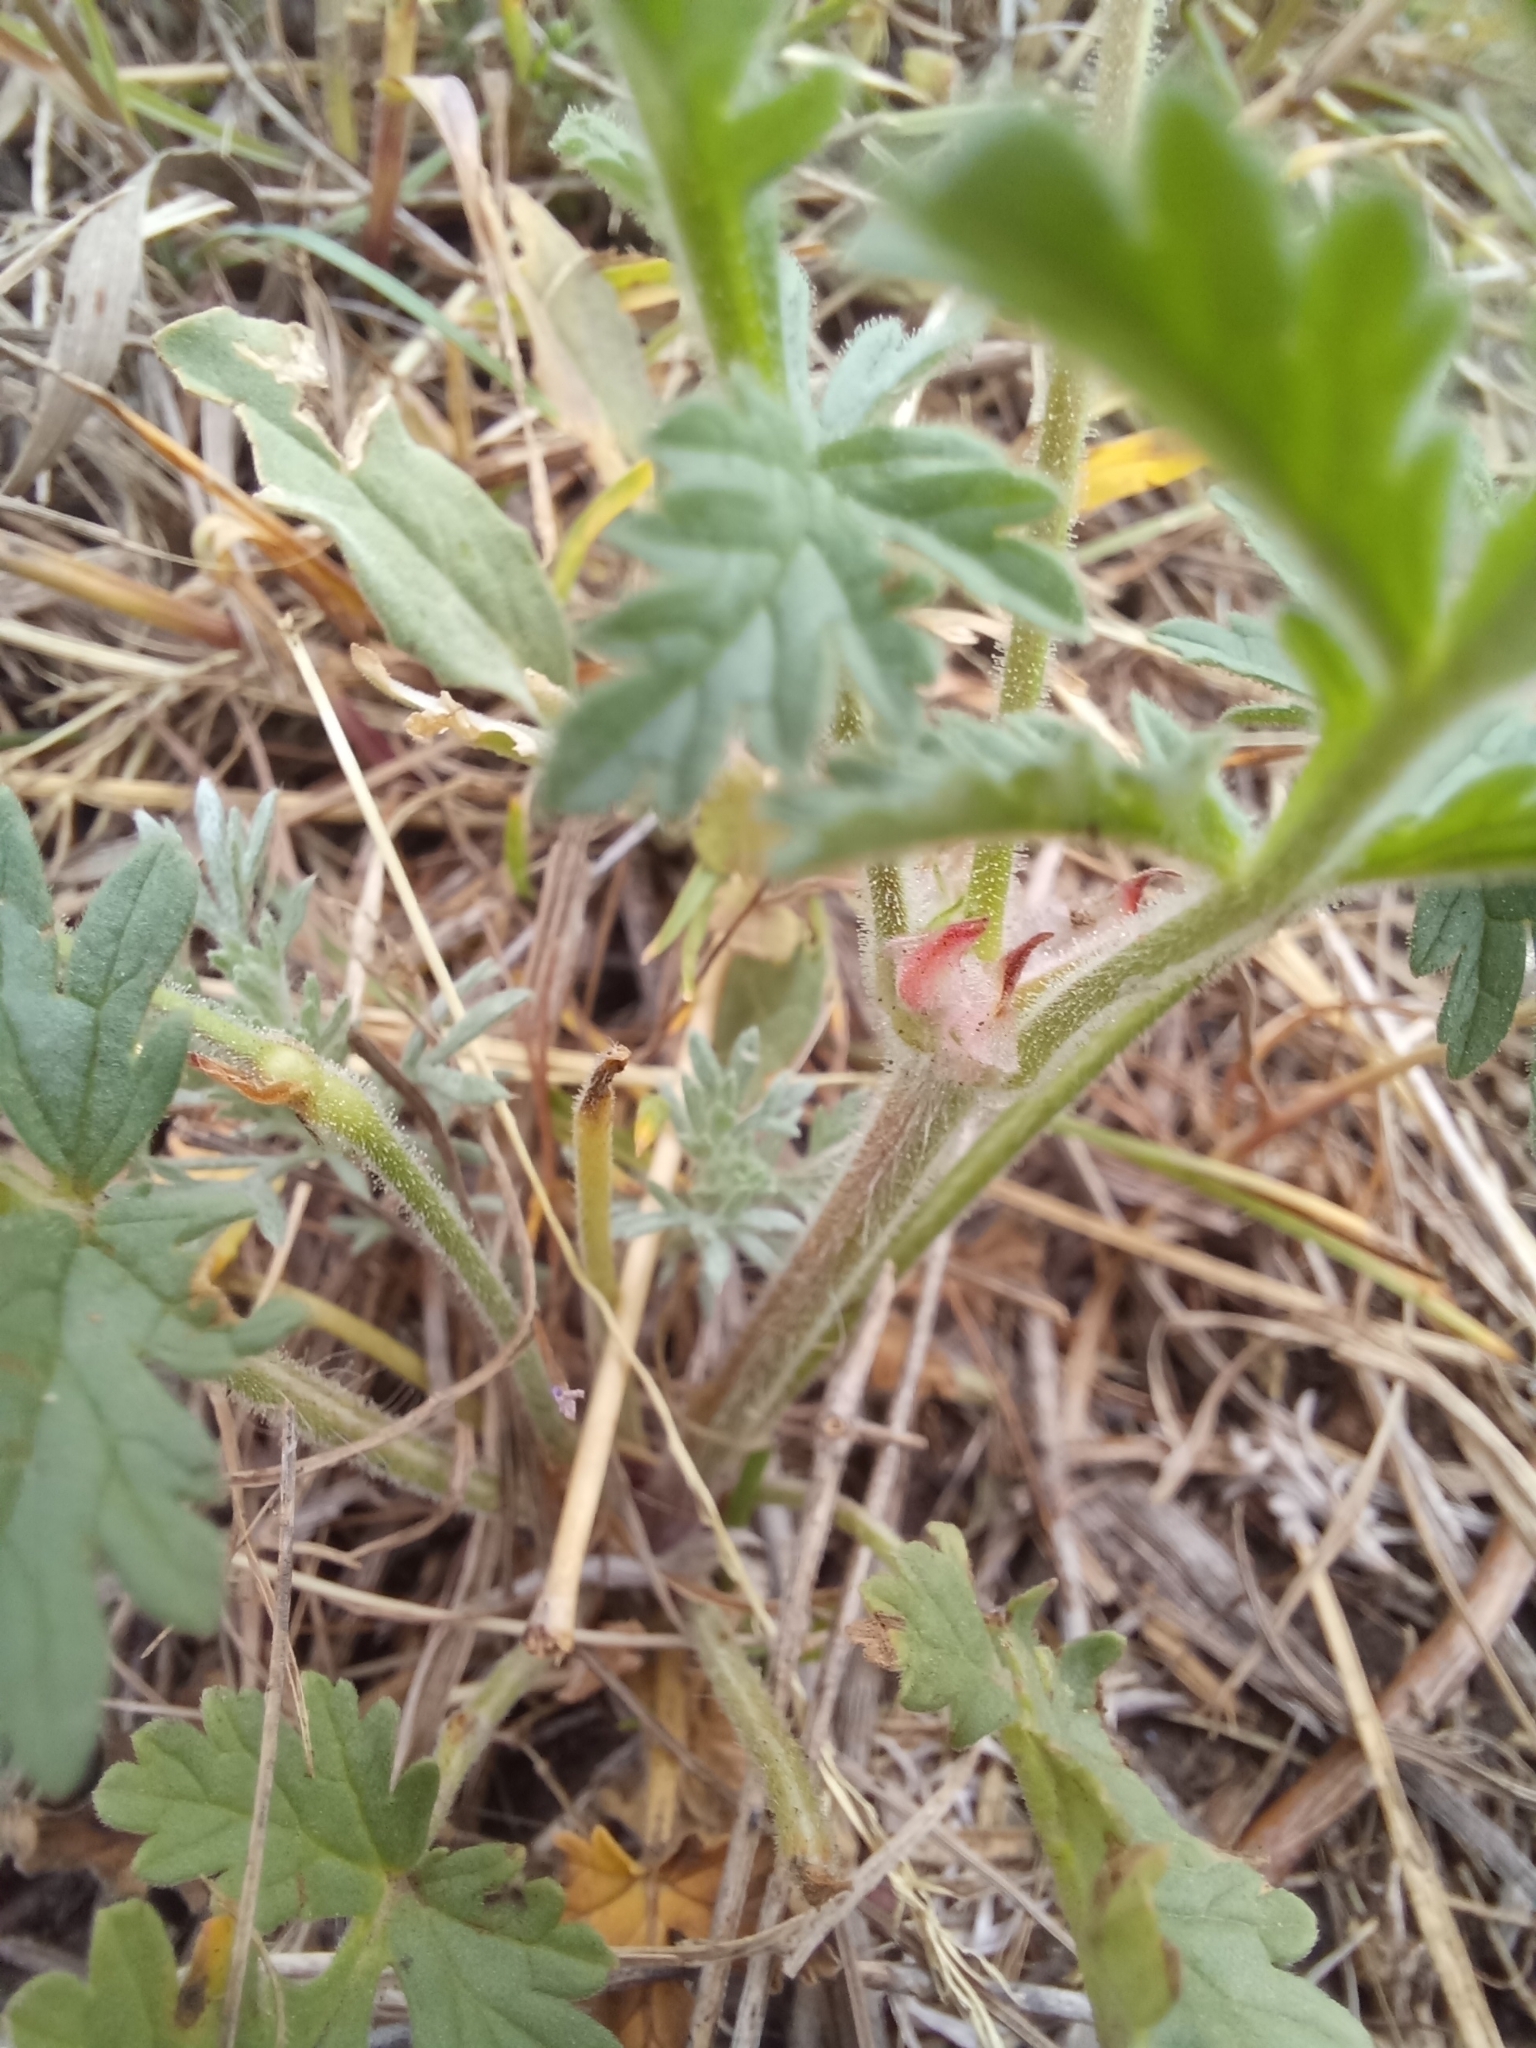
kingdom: Plantae
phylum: Tracheophyta
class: Magnoliopsida
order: Geraniales
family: Geraniaceae
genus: Erodium
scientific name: Erodium ciconium
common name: Common stork's bill
